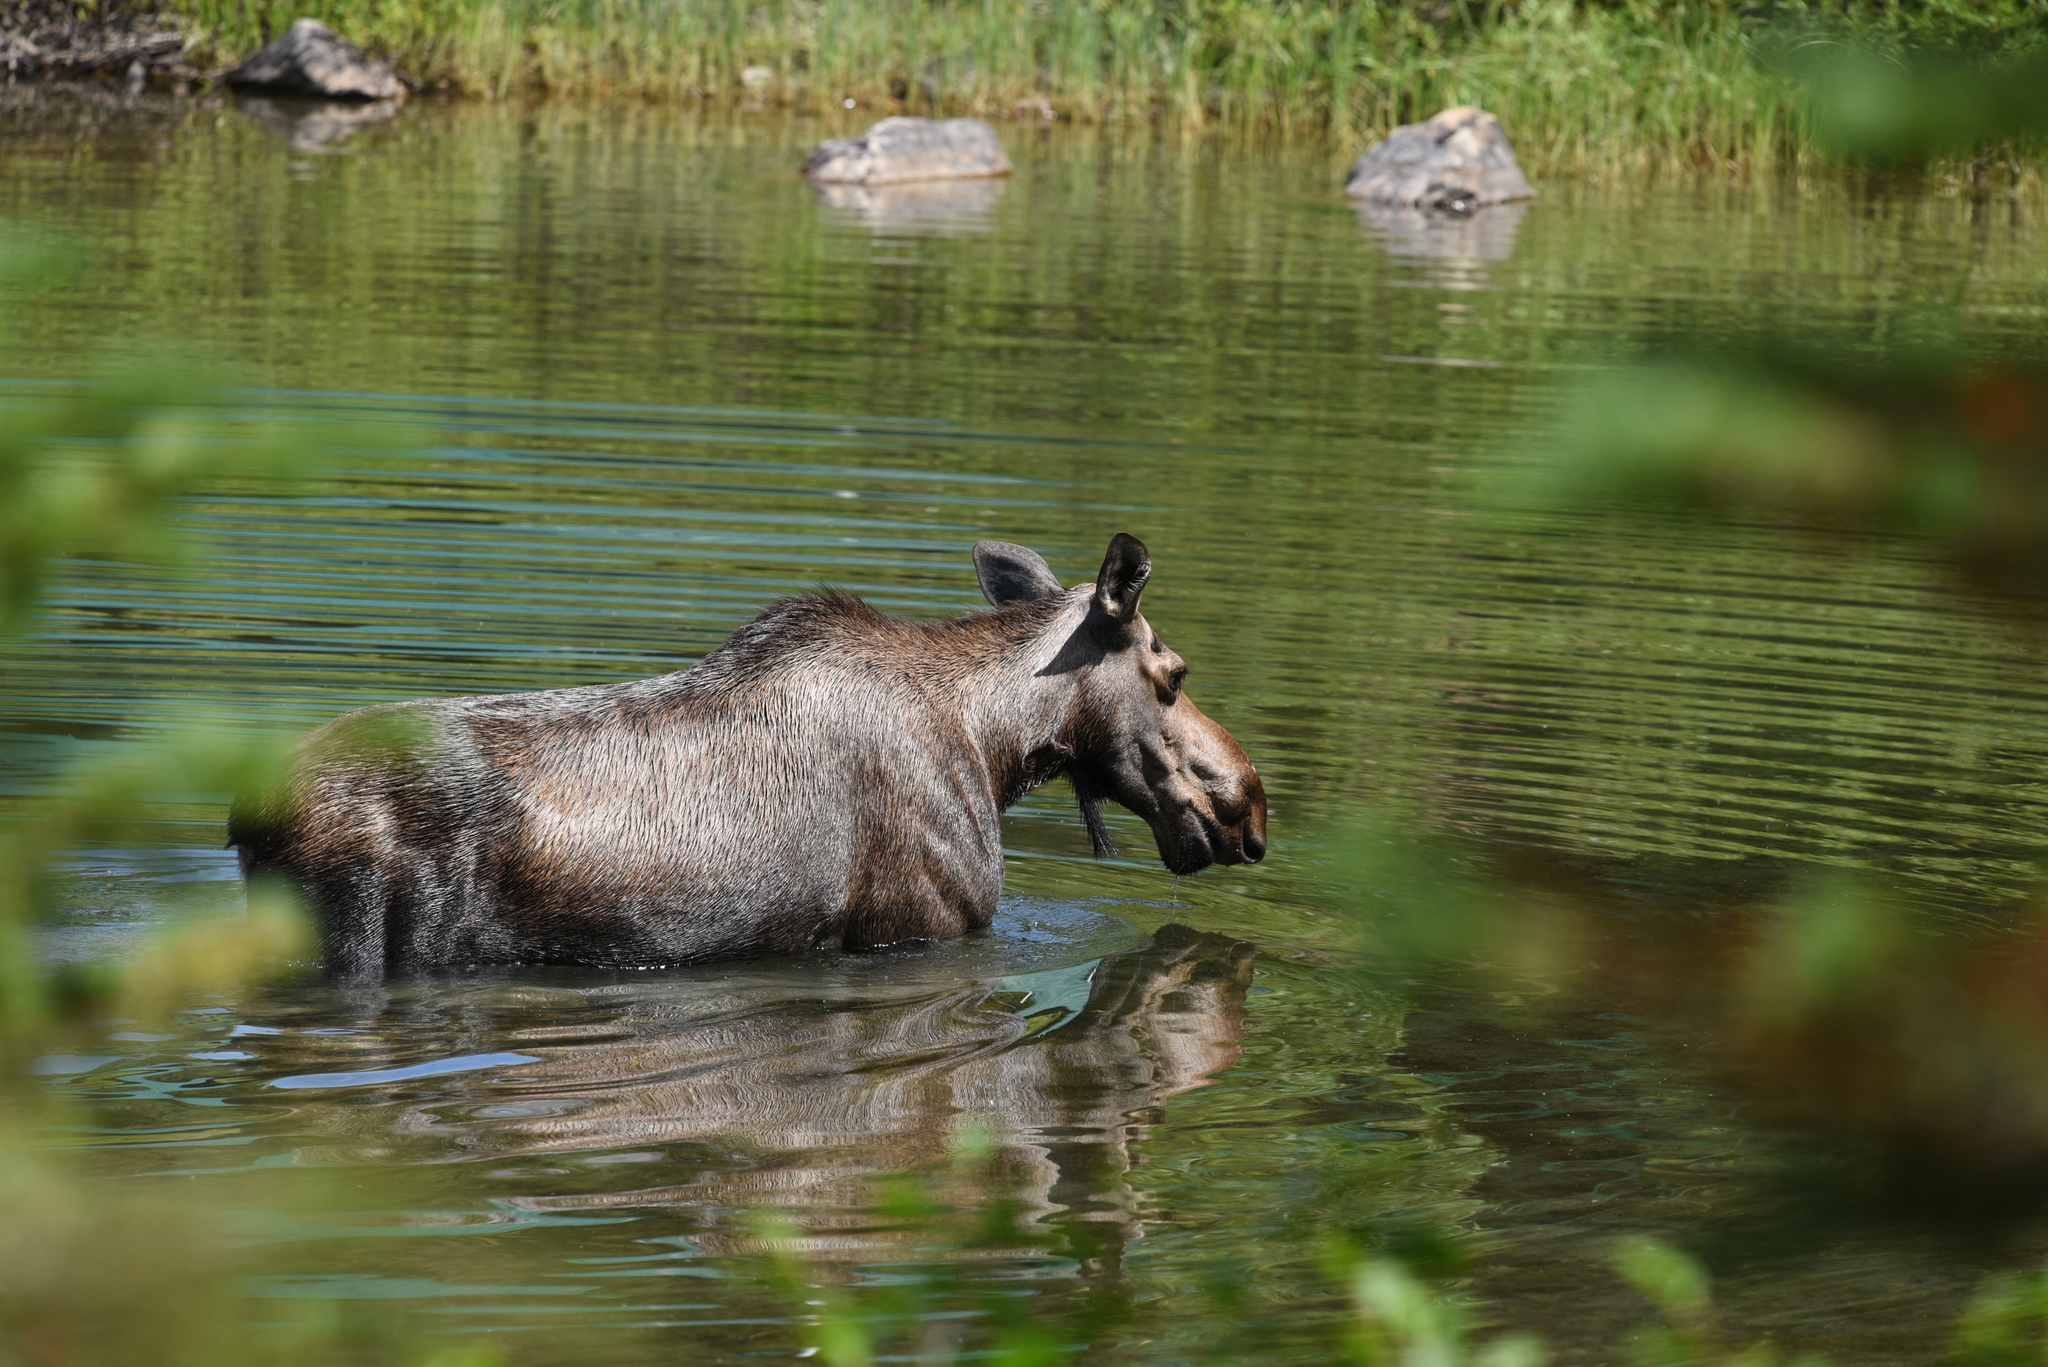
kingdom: Animalia
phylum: Chordata
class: Mammalia
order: Artiodactyla
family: Cervidae
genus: Alces
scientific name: Alces alces
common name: Moose
